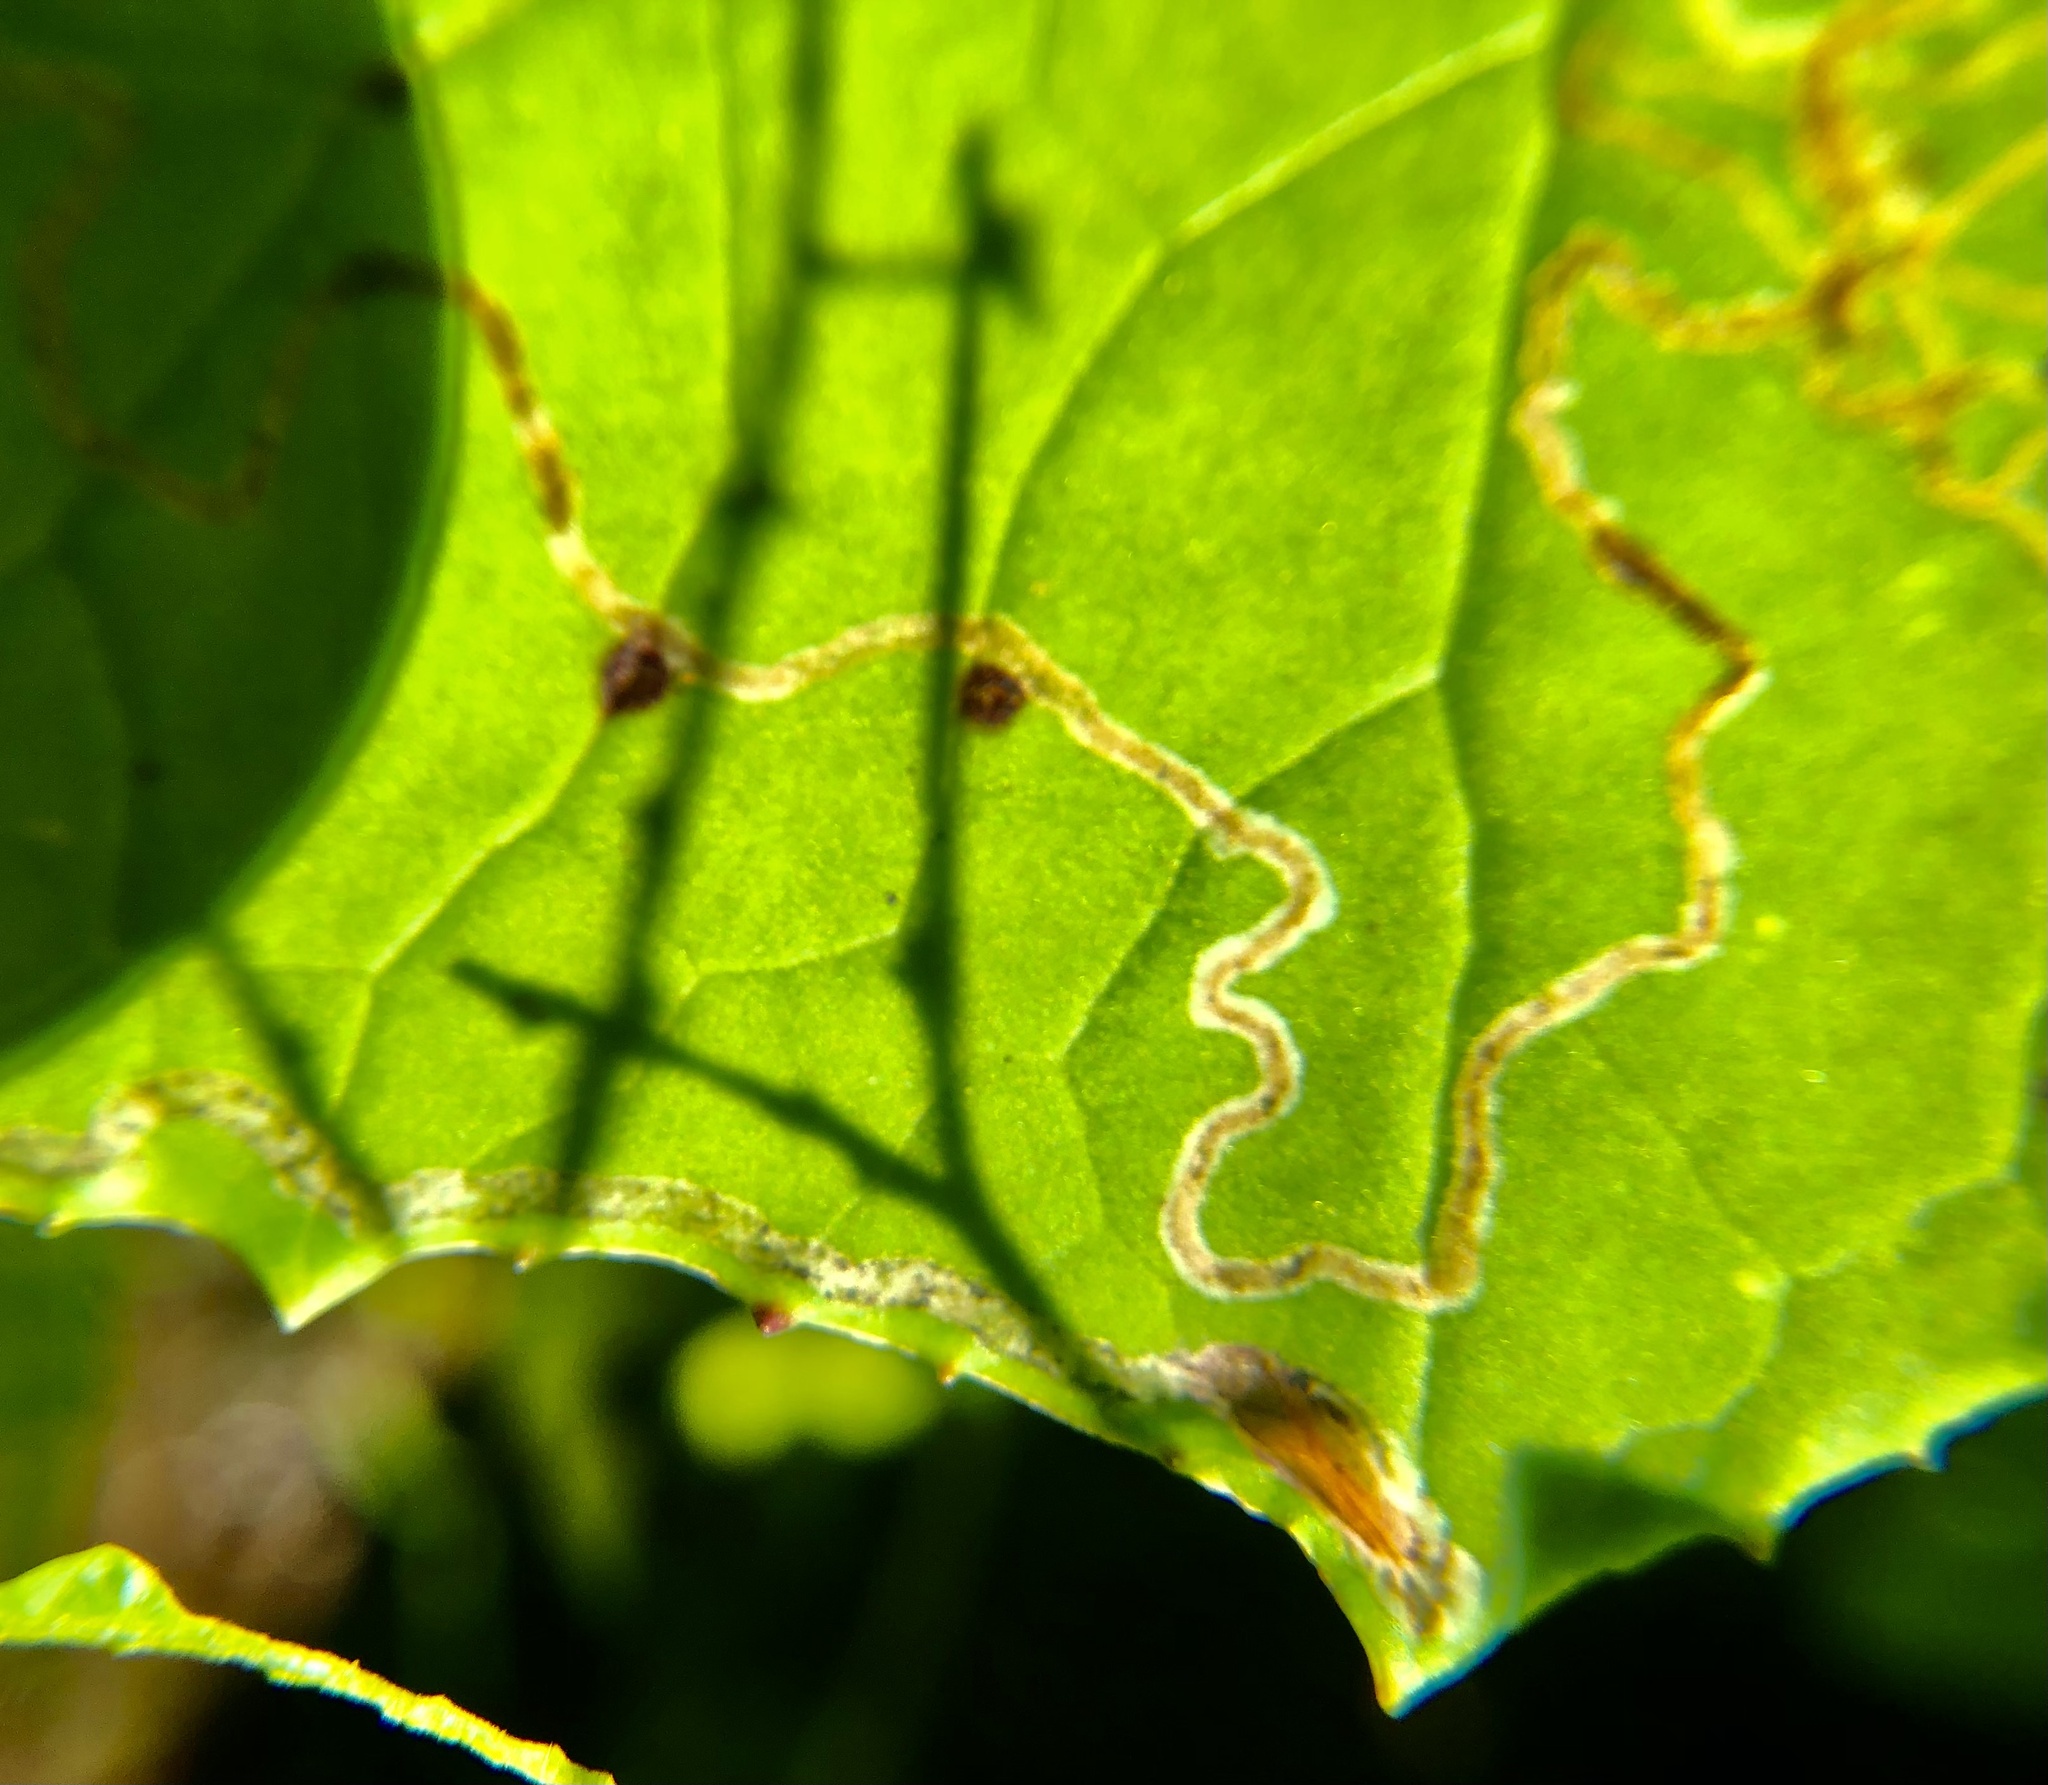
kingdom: Animalia
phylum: Arthropoda
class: Insecta
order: Lepidoptera
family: Gracillariidae
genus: Phyllocnistis
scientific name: Phyllocnistis insignis
